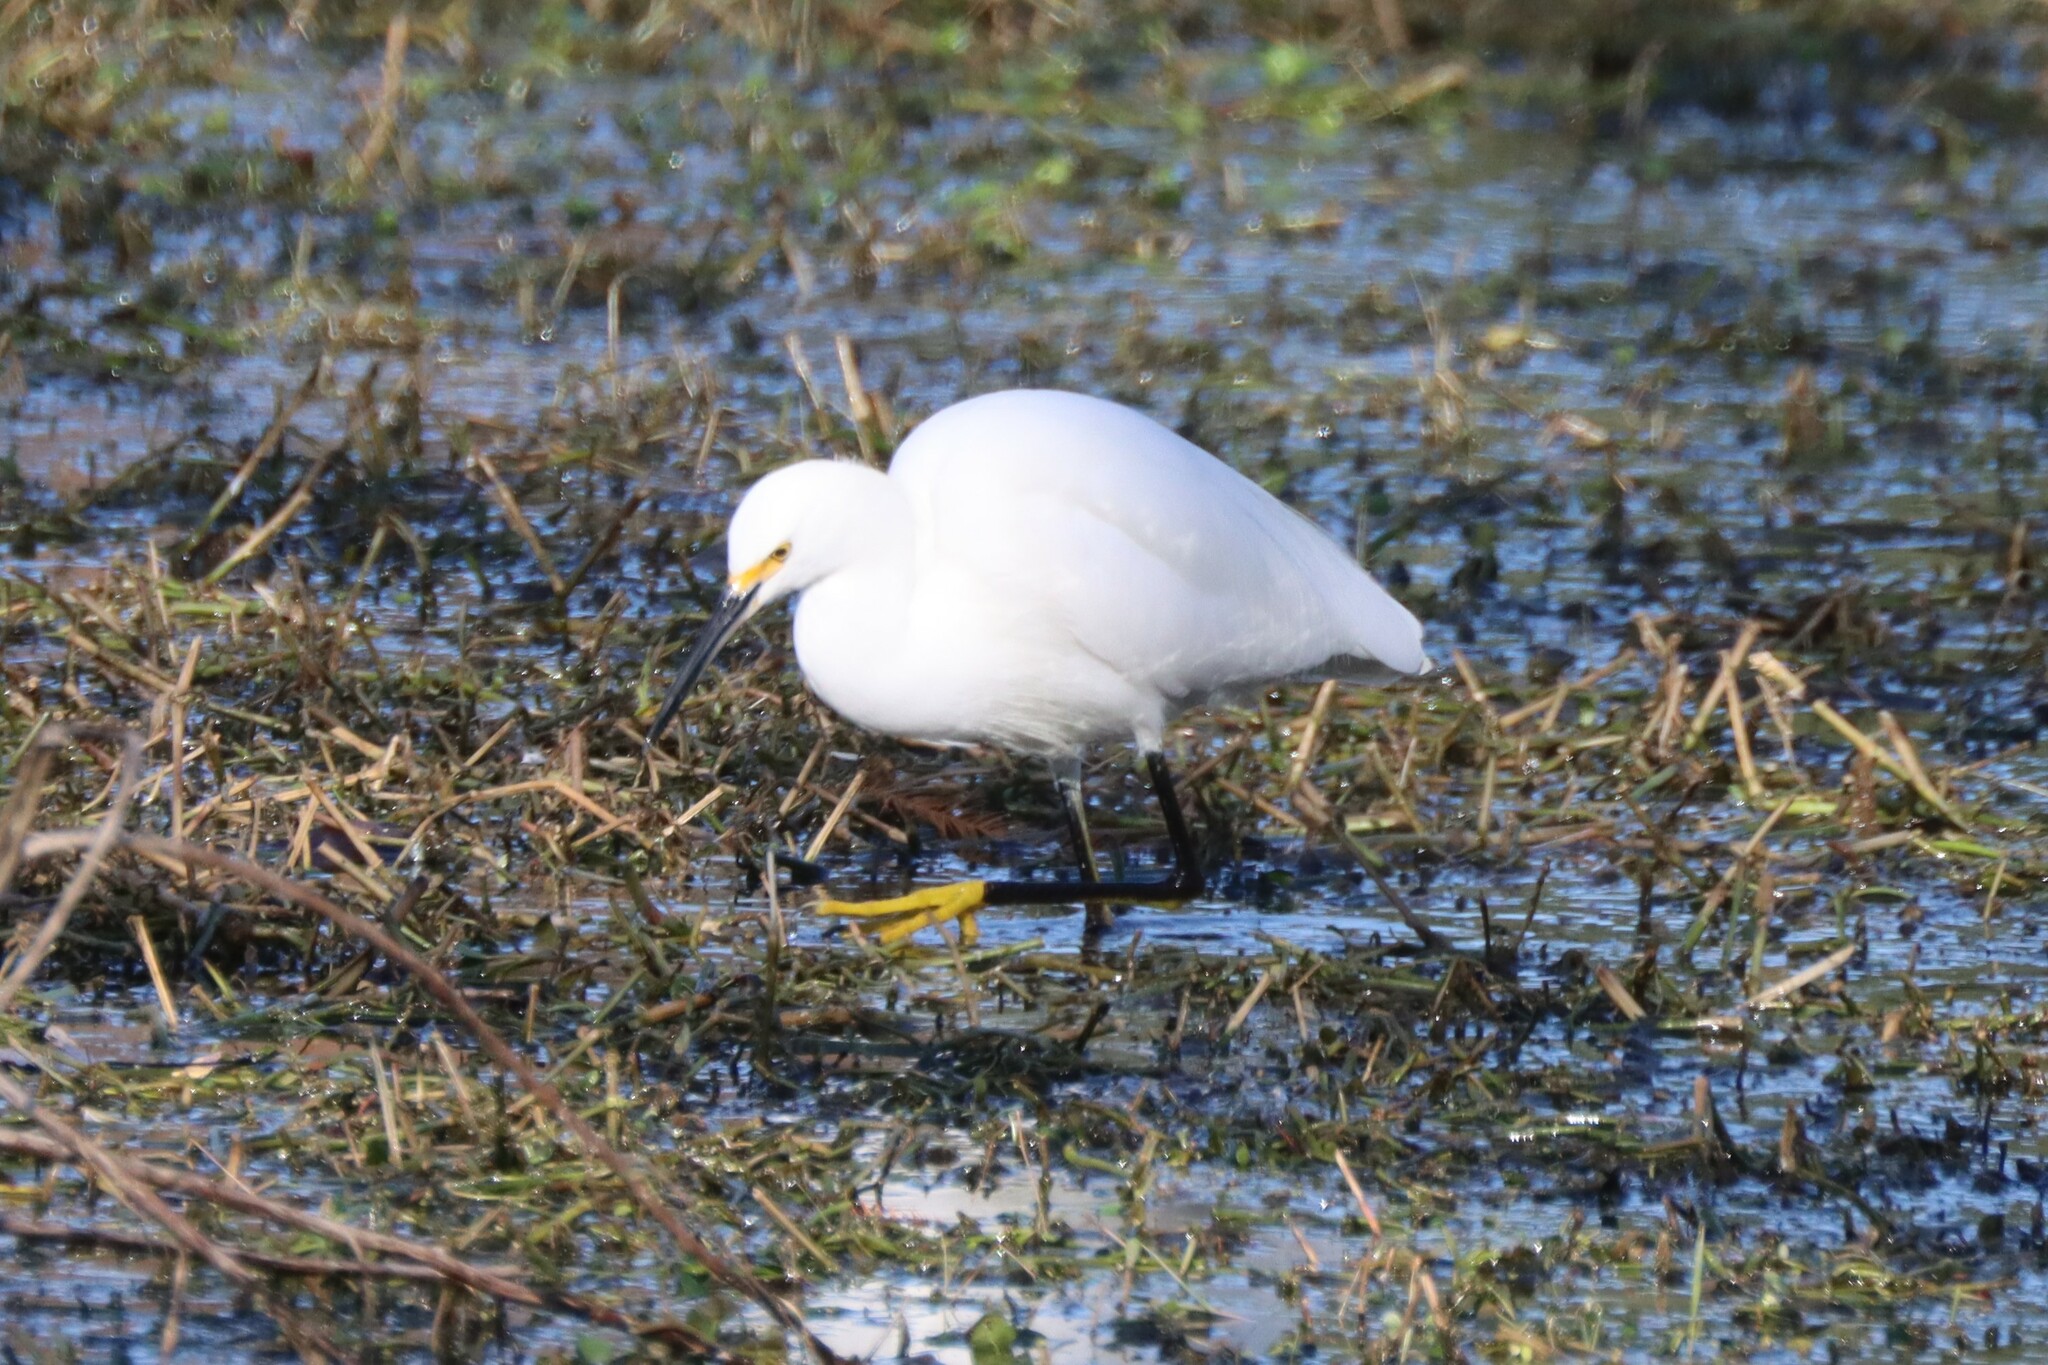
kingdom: Animalia
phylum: Chordata
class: Aves
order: Pelecaniformes
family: Ardeidae
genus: Egretta
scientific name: Egretta thula
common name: Snowy egret
